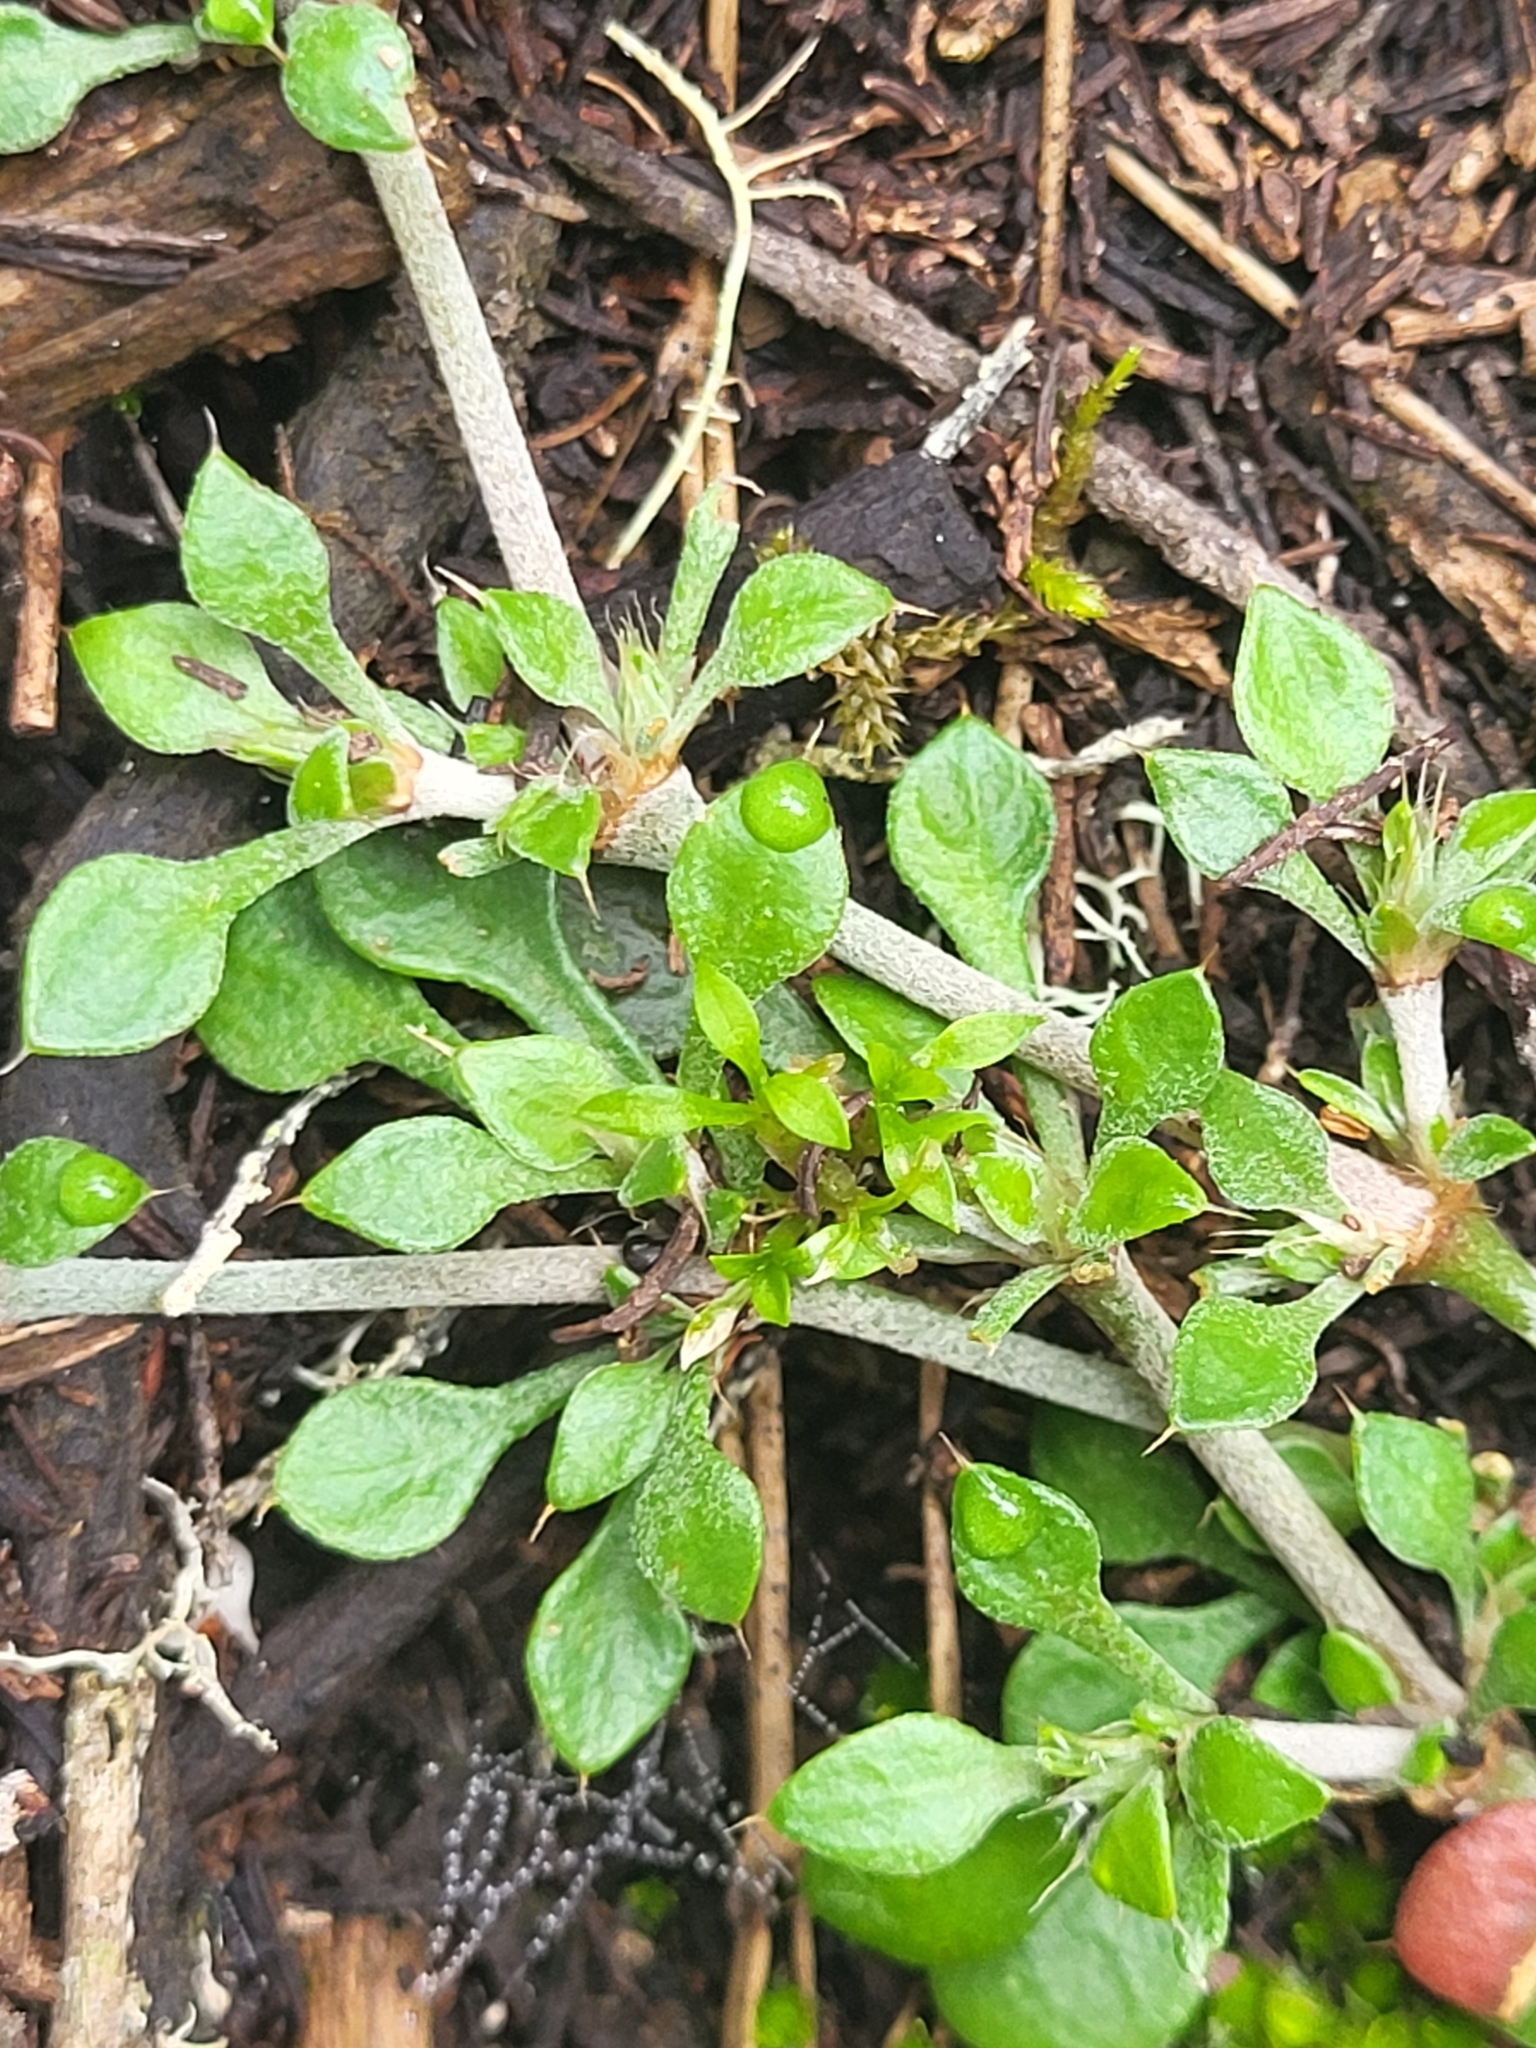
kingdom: Plantae
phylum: Tracheophyta
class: Magnoliopsida
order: Caryophyllales
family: Caryophyllaceae
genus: Polycarpaea
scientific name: Polycarpaea latifolia
